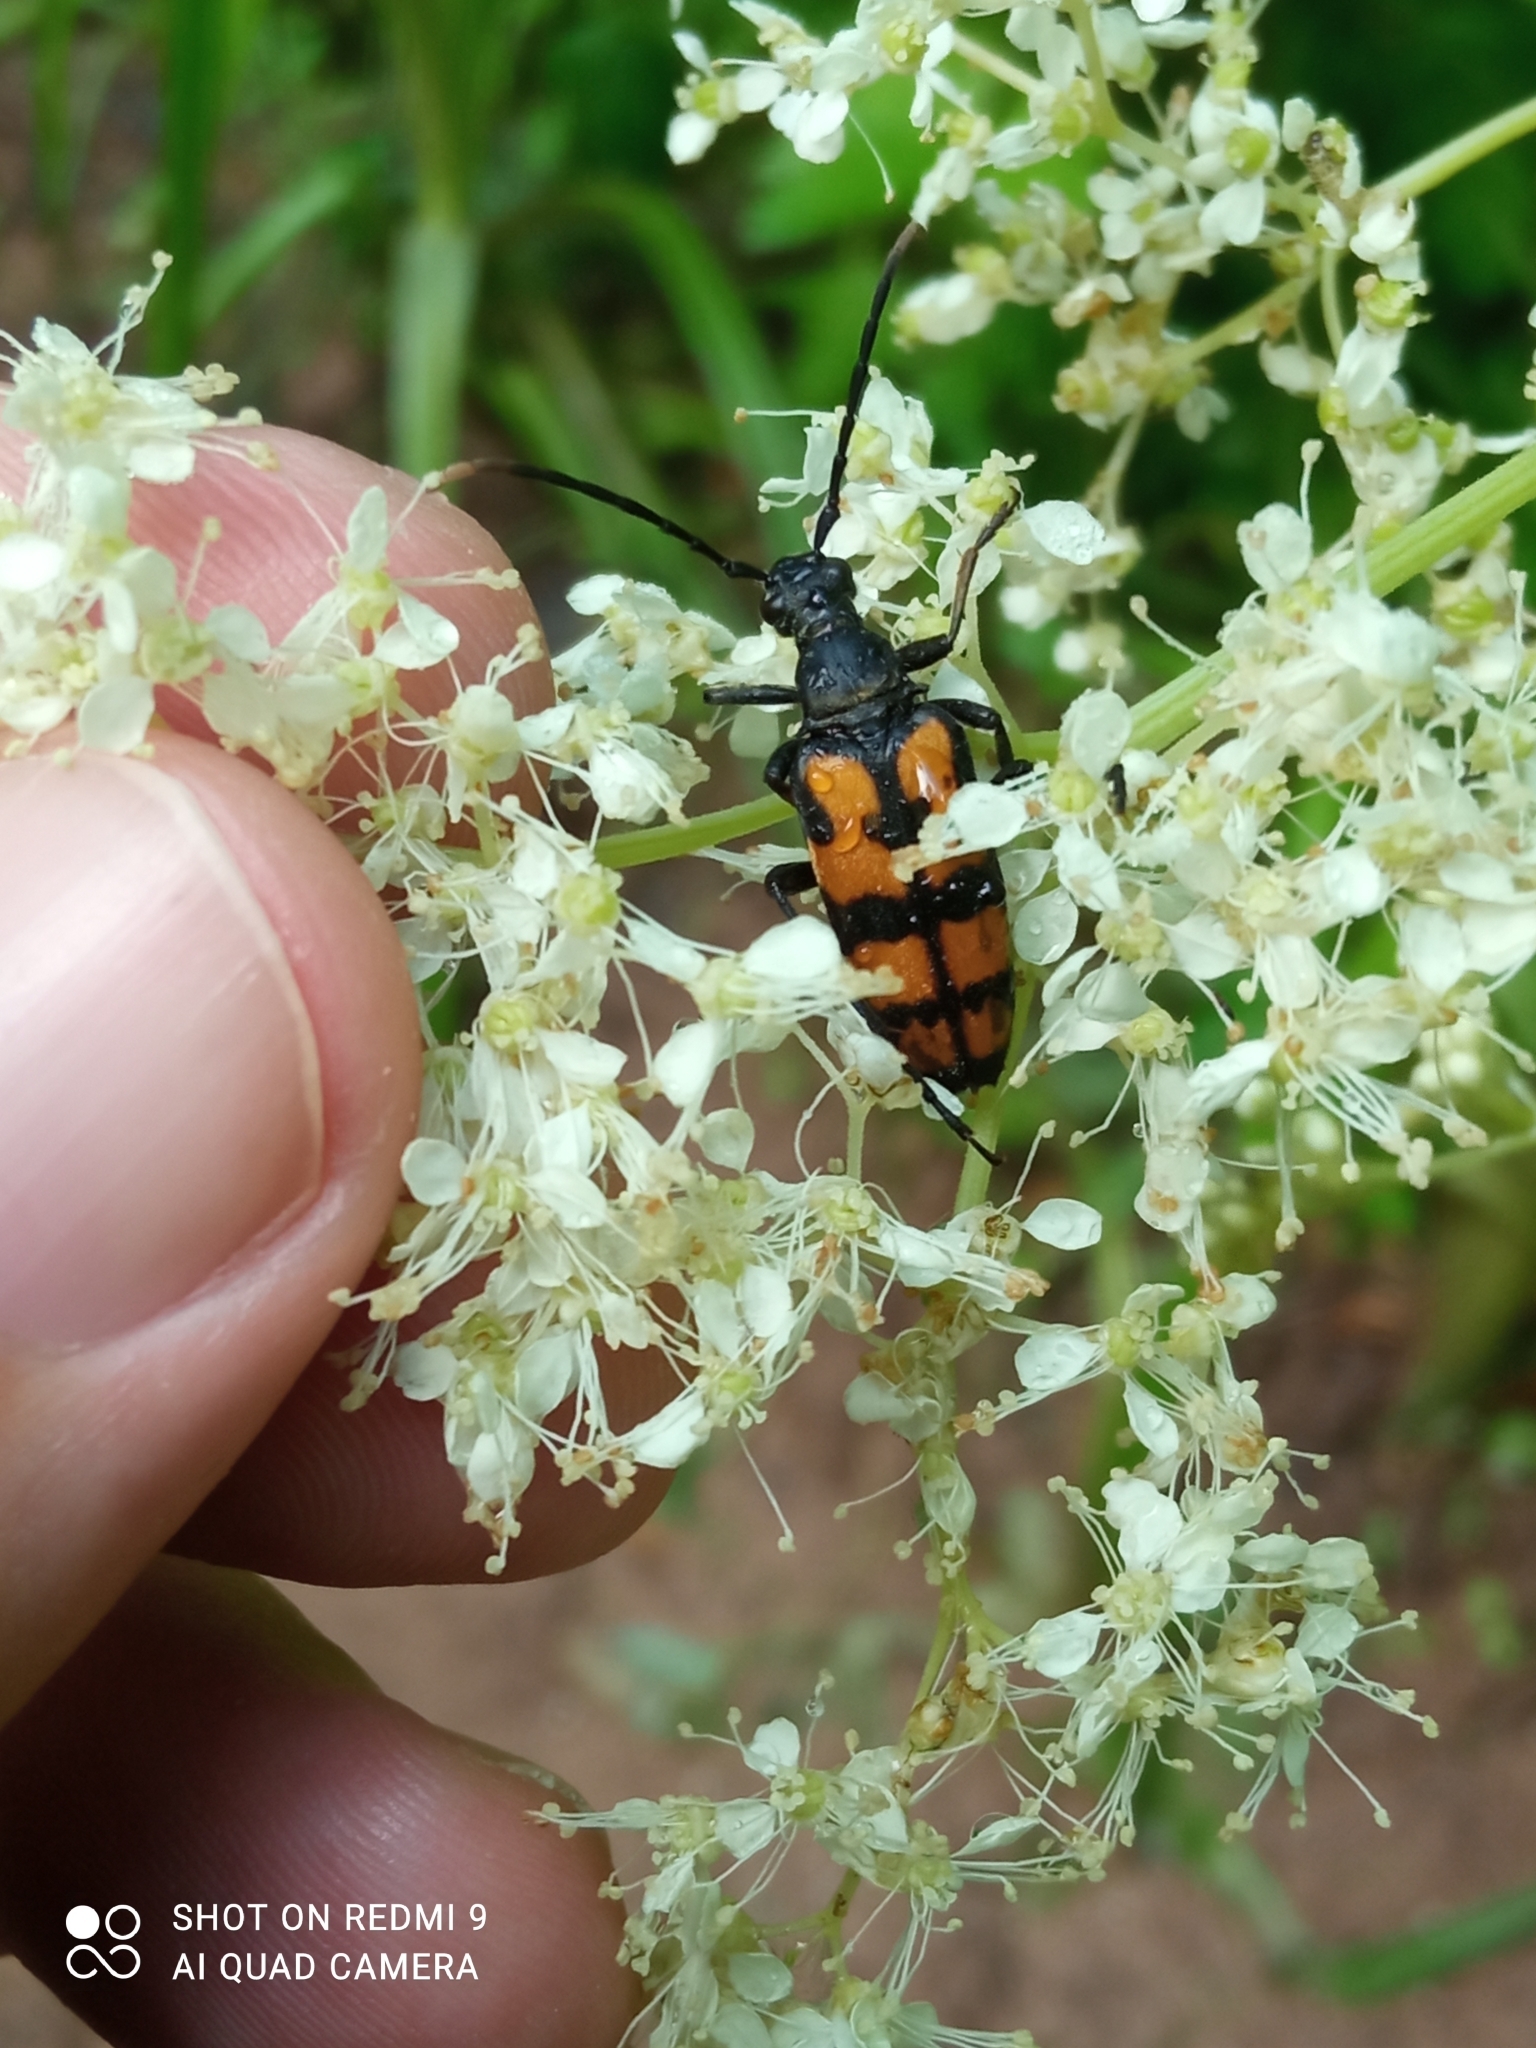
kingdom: Animalia
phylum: Arthropoda
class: Insecta
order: Coleoptera
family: Cerambycidae
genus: Leptura
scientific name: Leptura quadrifasciata
